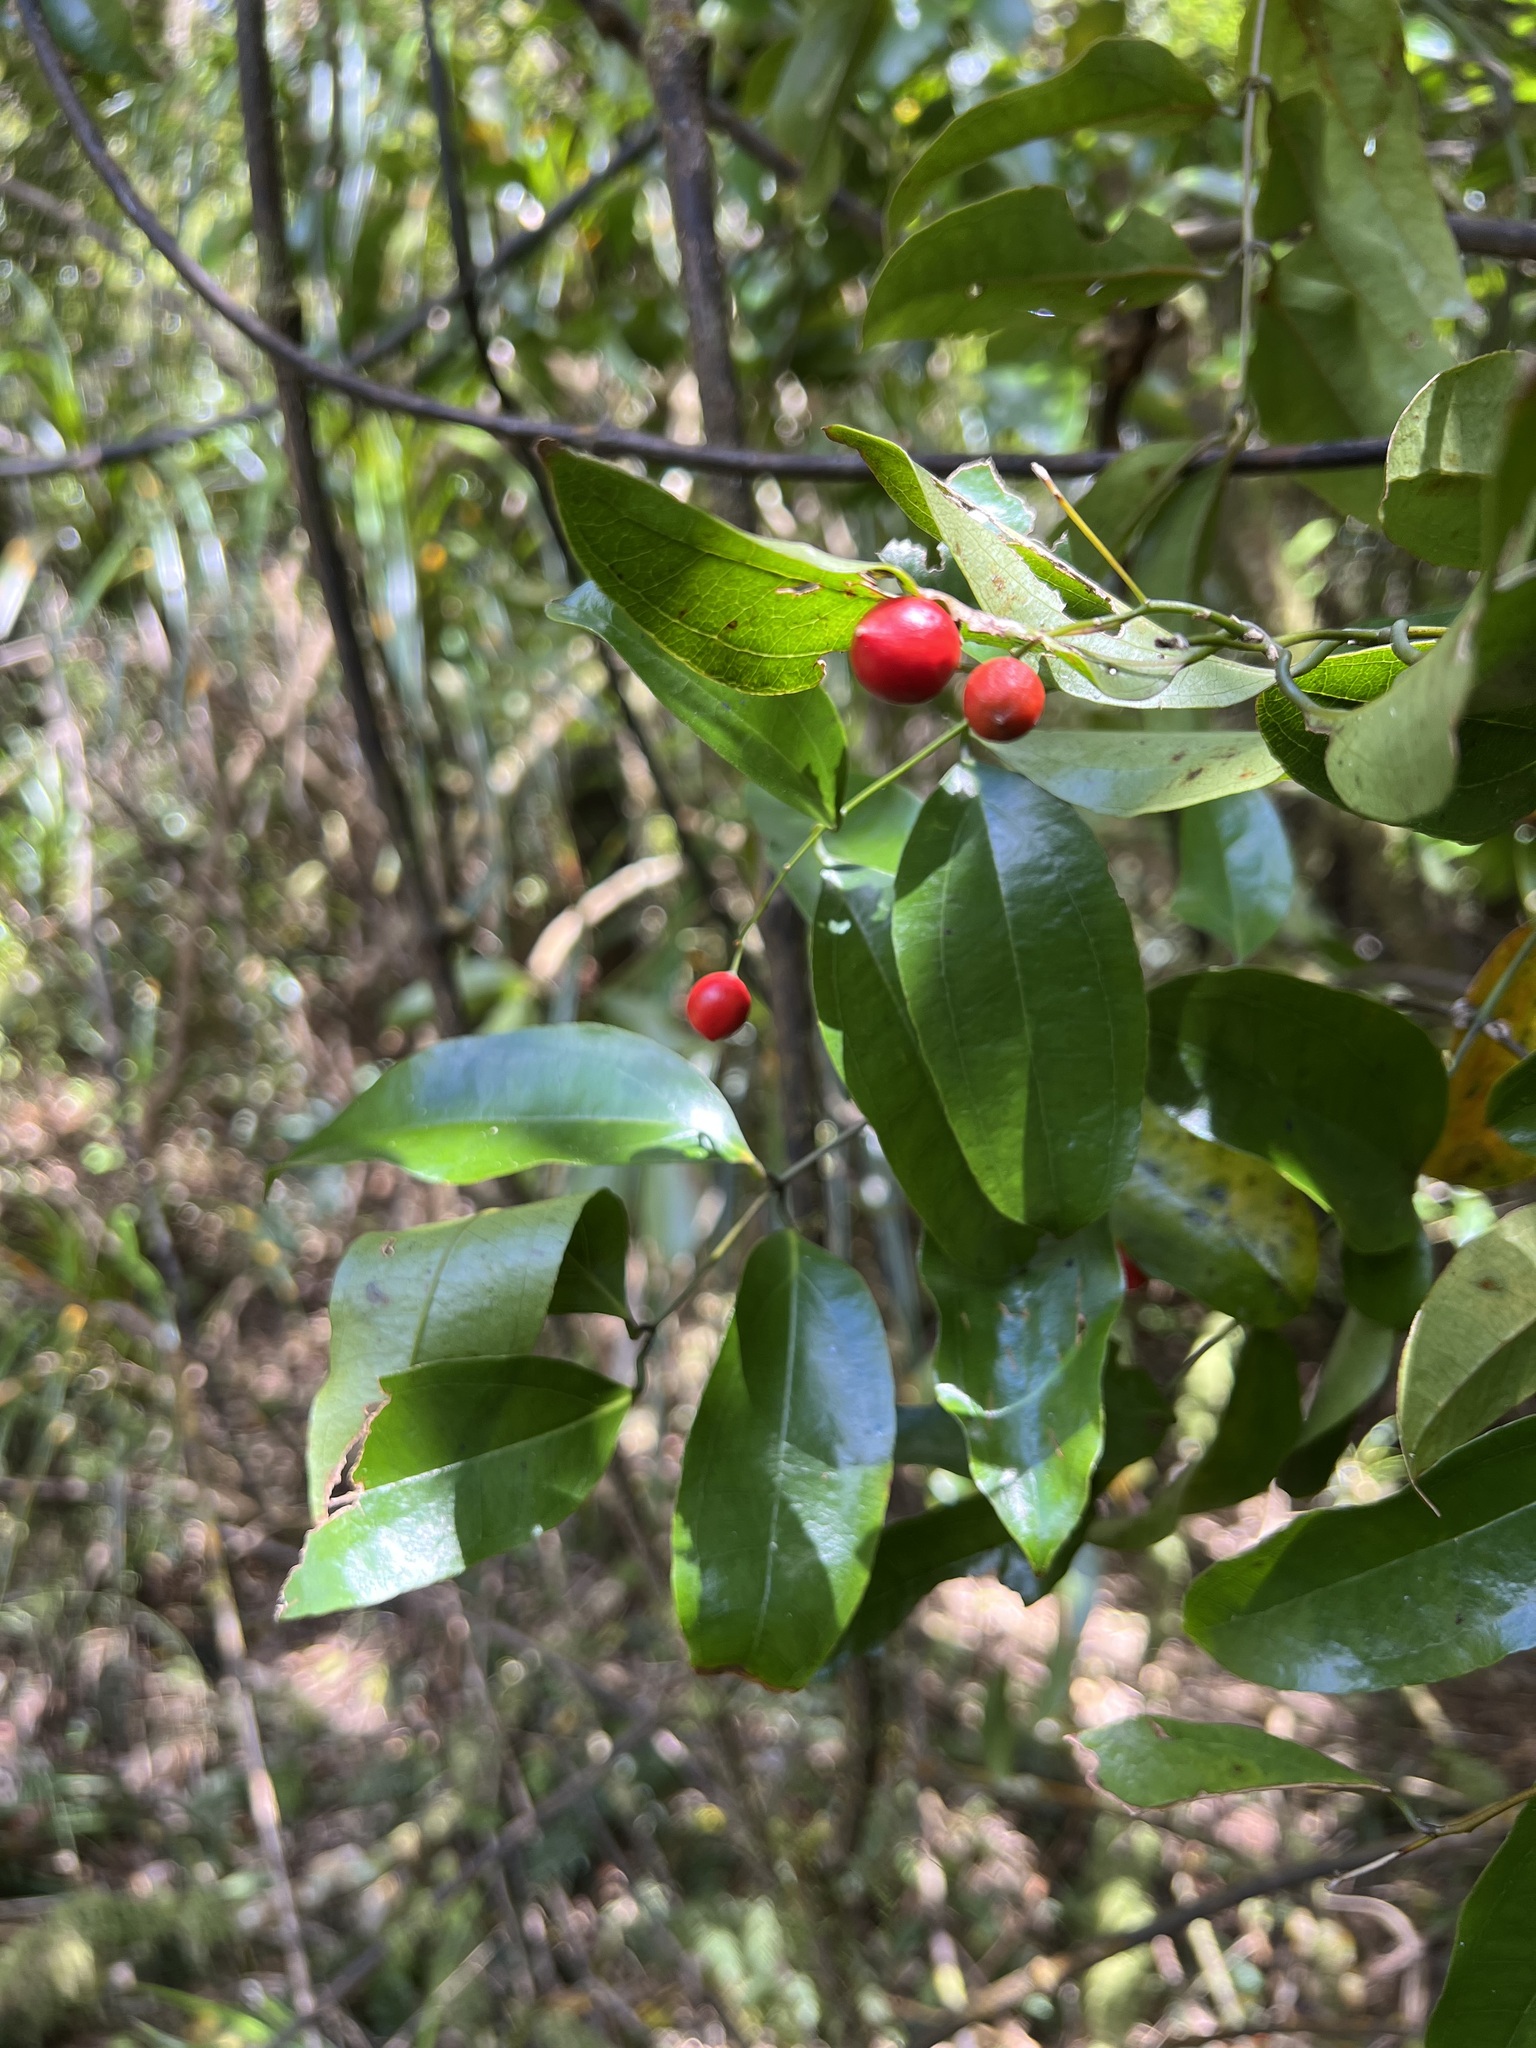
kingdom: Plantae
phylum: Tracheophyta
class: Liliopsida
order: Liliales
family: Ripogonaceae
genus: Ripogonum
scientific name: Ripogonum scandens
